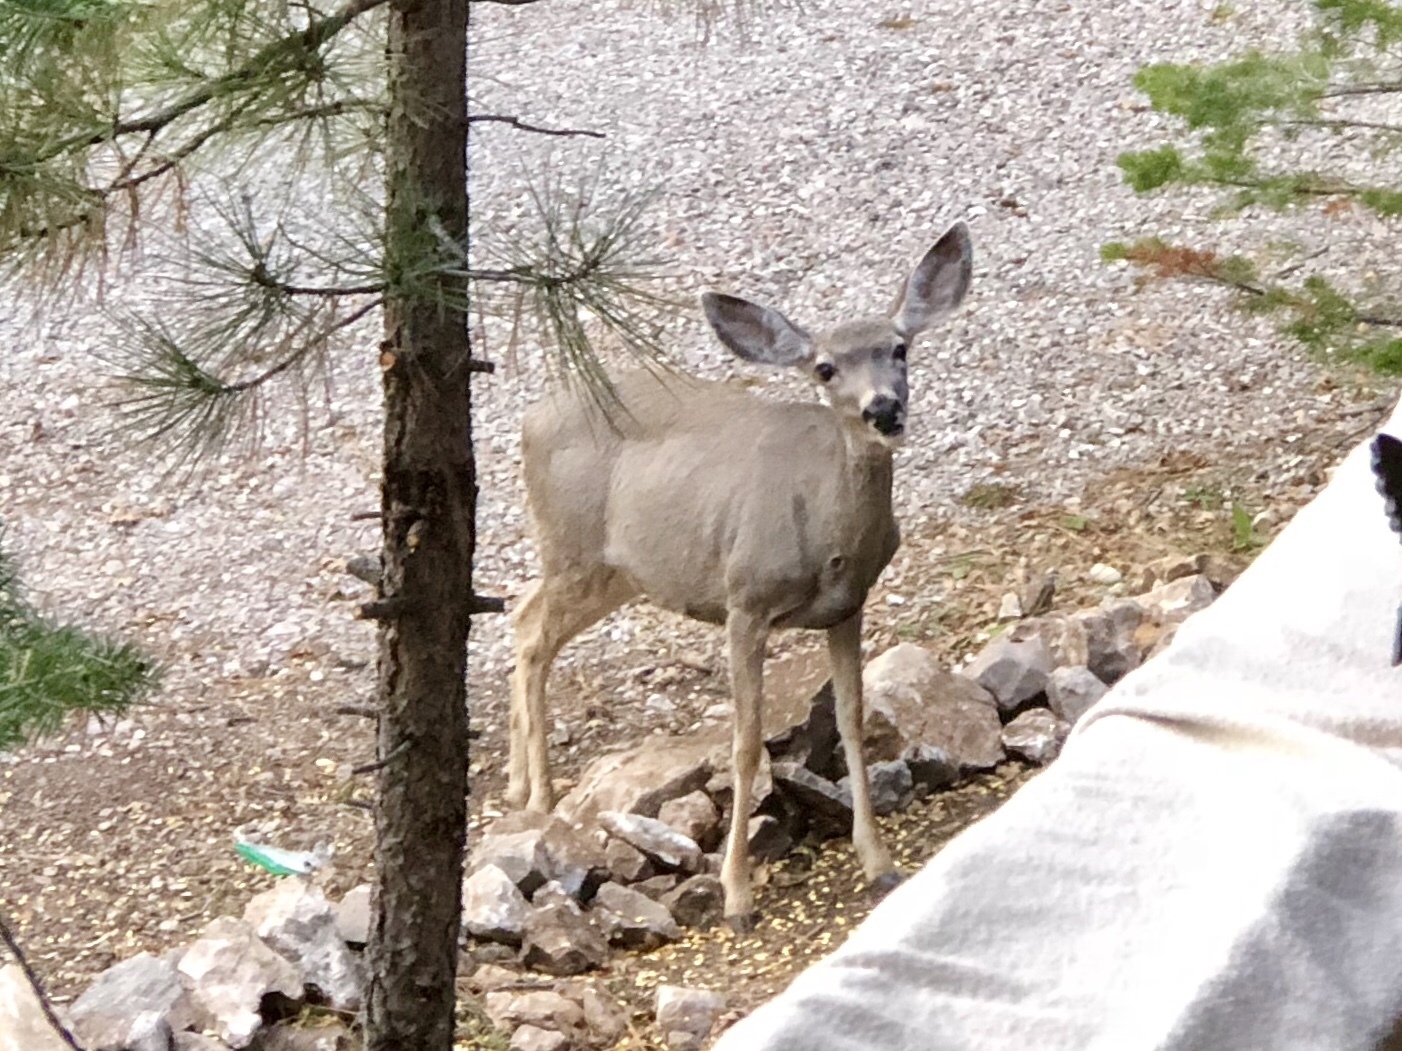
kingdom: Animalia
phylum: Chordata
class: Mammalia
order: Artiodactyla
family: Cervidae
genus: Odocoileus
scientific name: Odocoileus hemionus
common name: Mule deer
